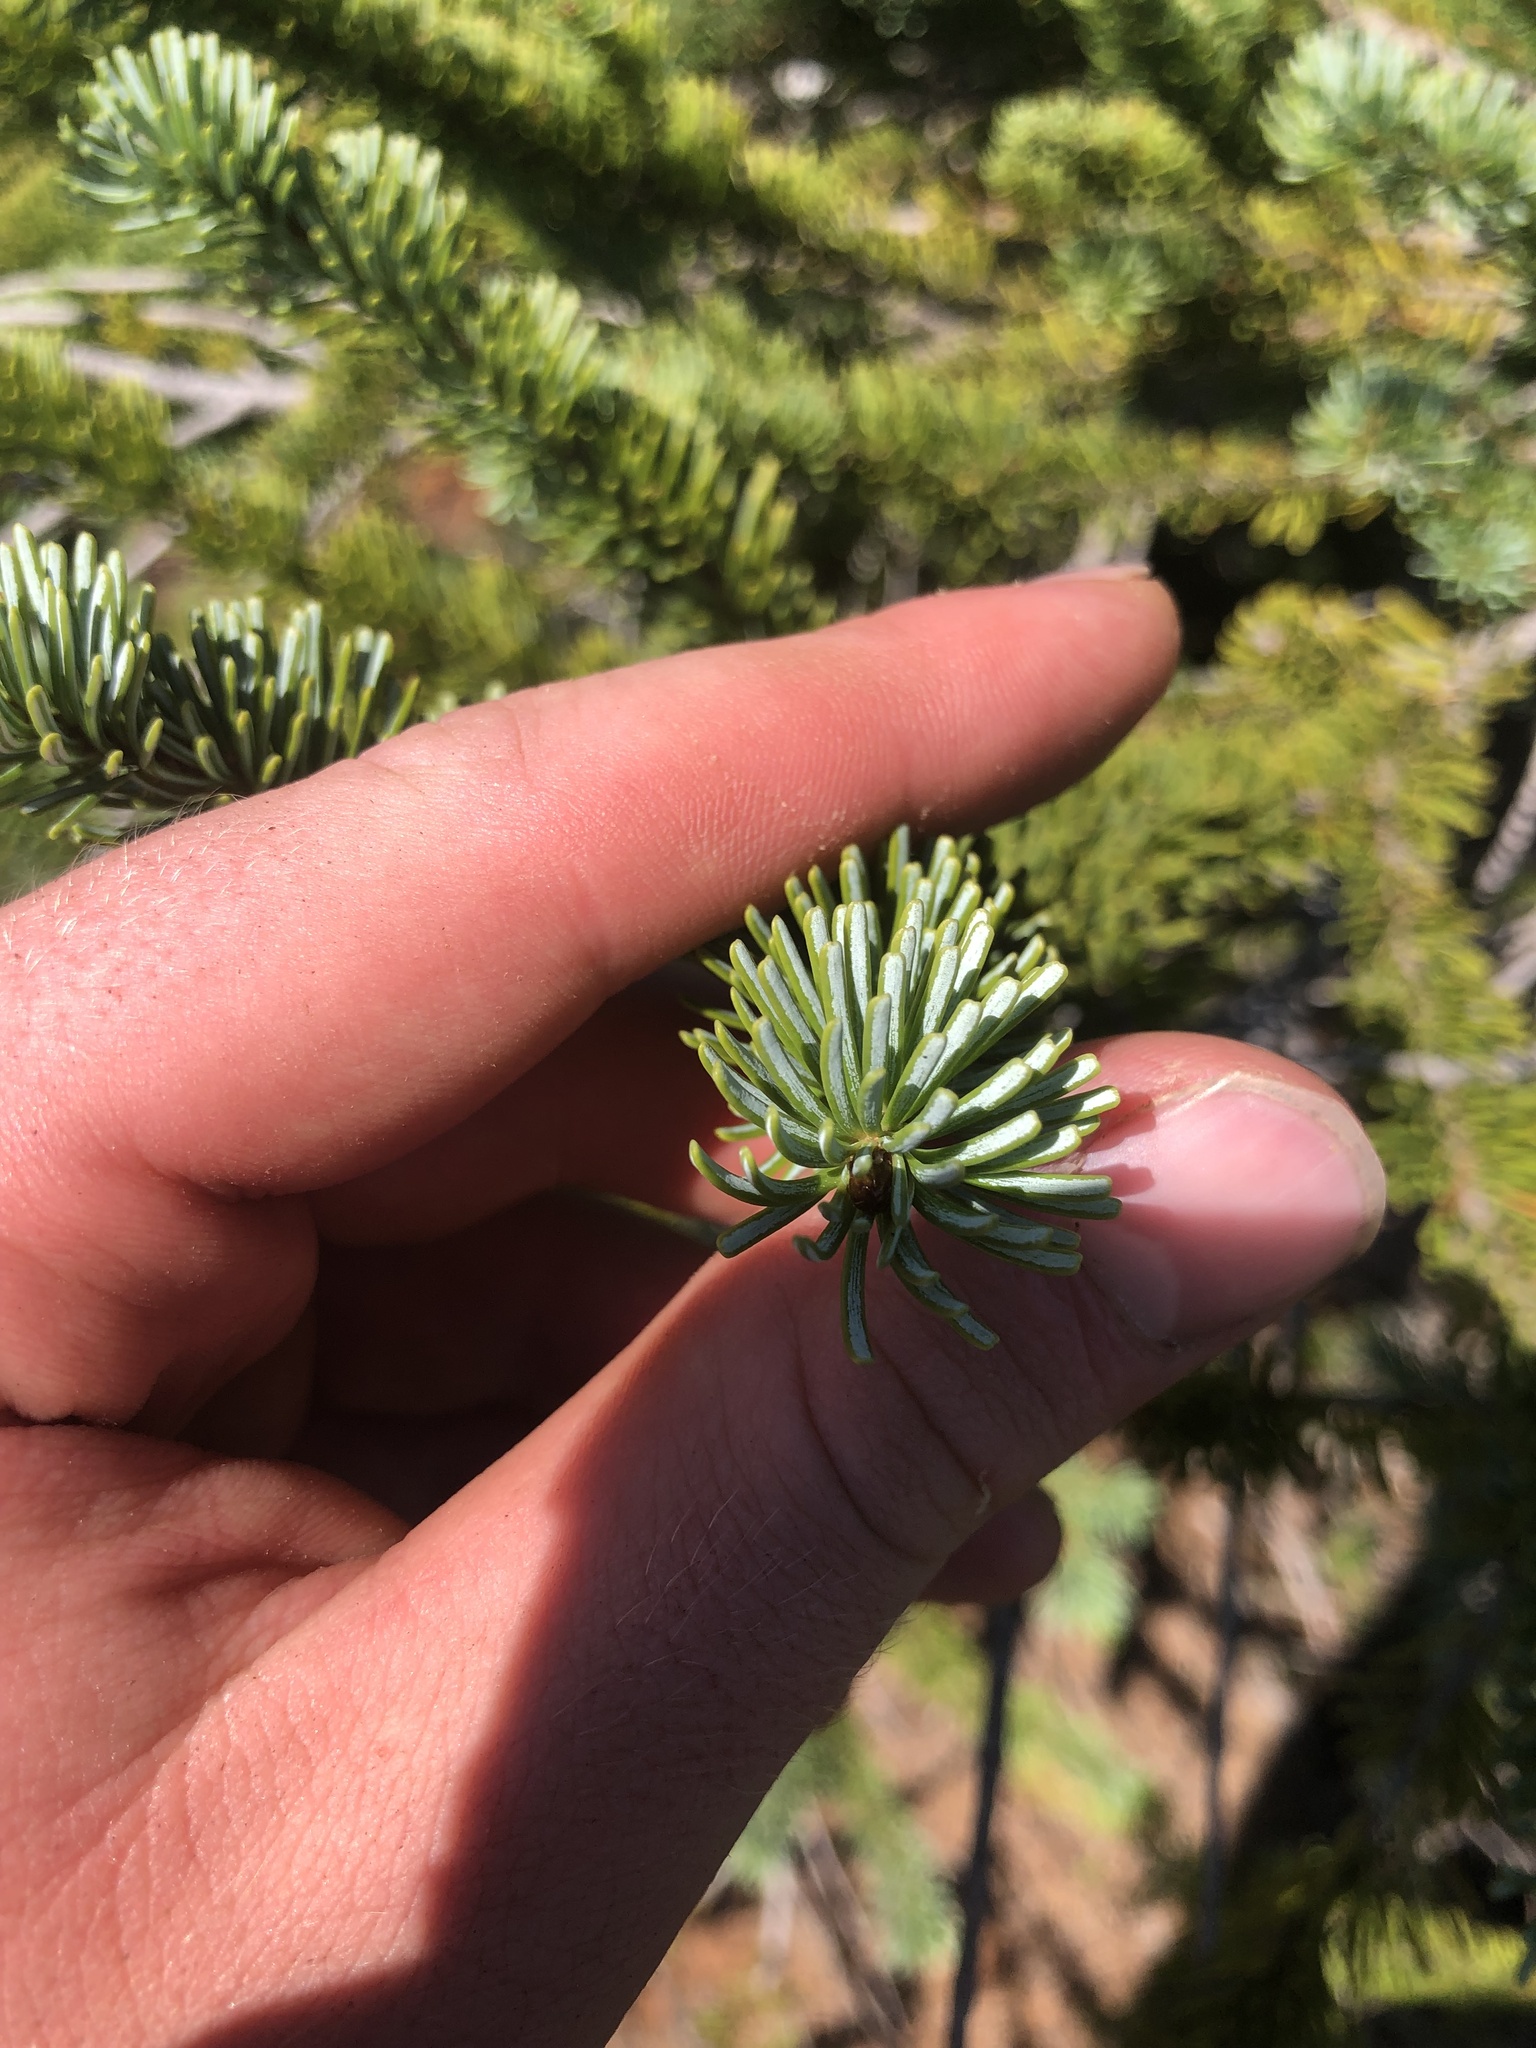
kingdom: Plantae
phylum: Tracheophyta
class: Pinopsida
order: Pinales
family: Pinaceae
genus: Abies
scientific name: Abies lasiocarpa
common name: Subalpine fir
